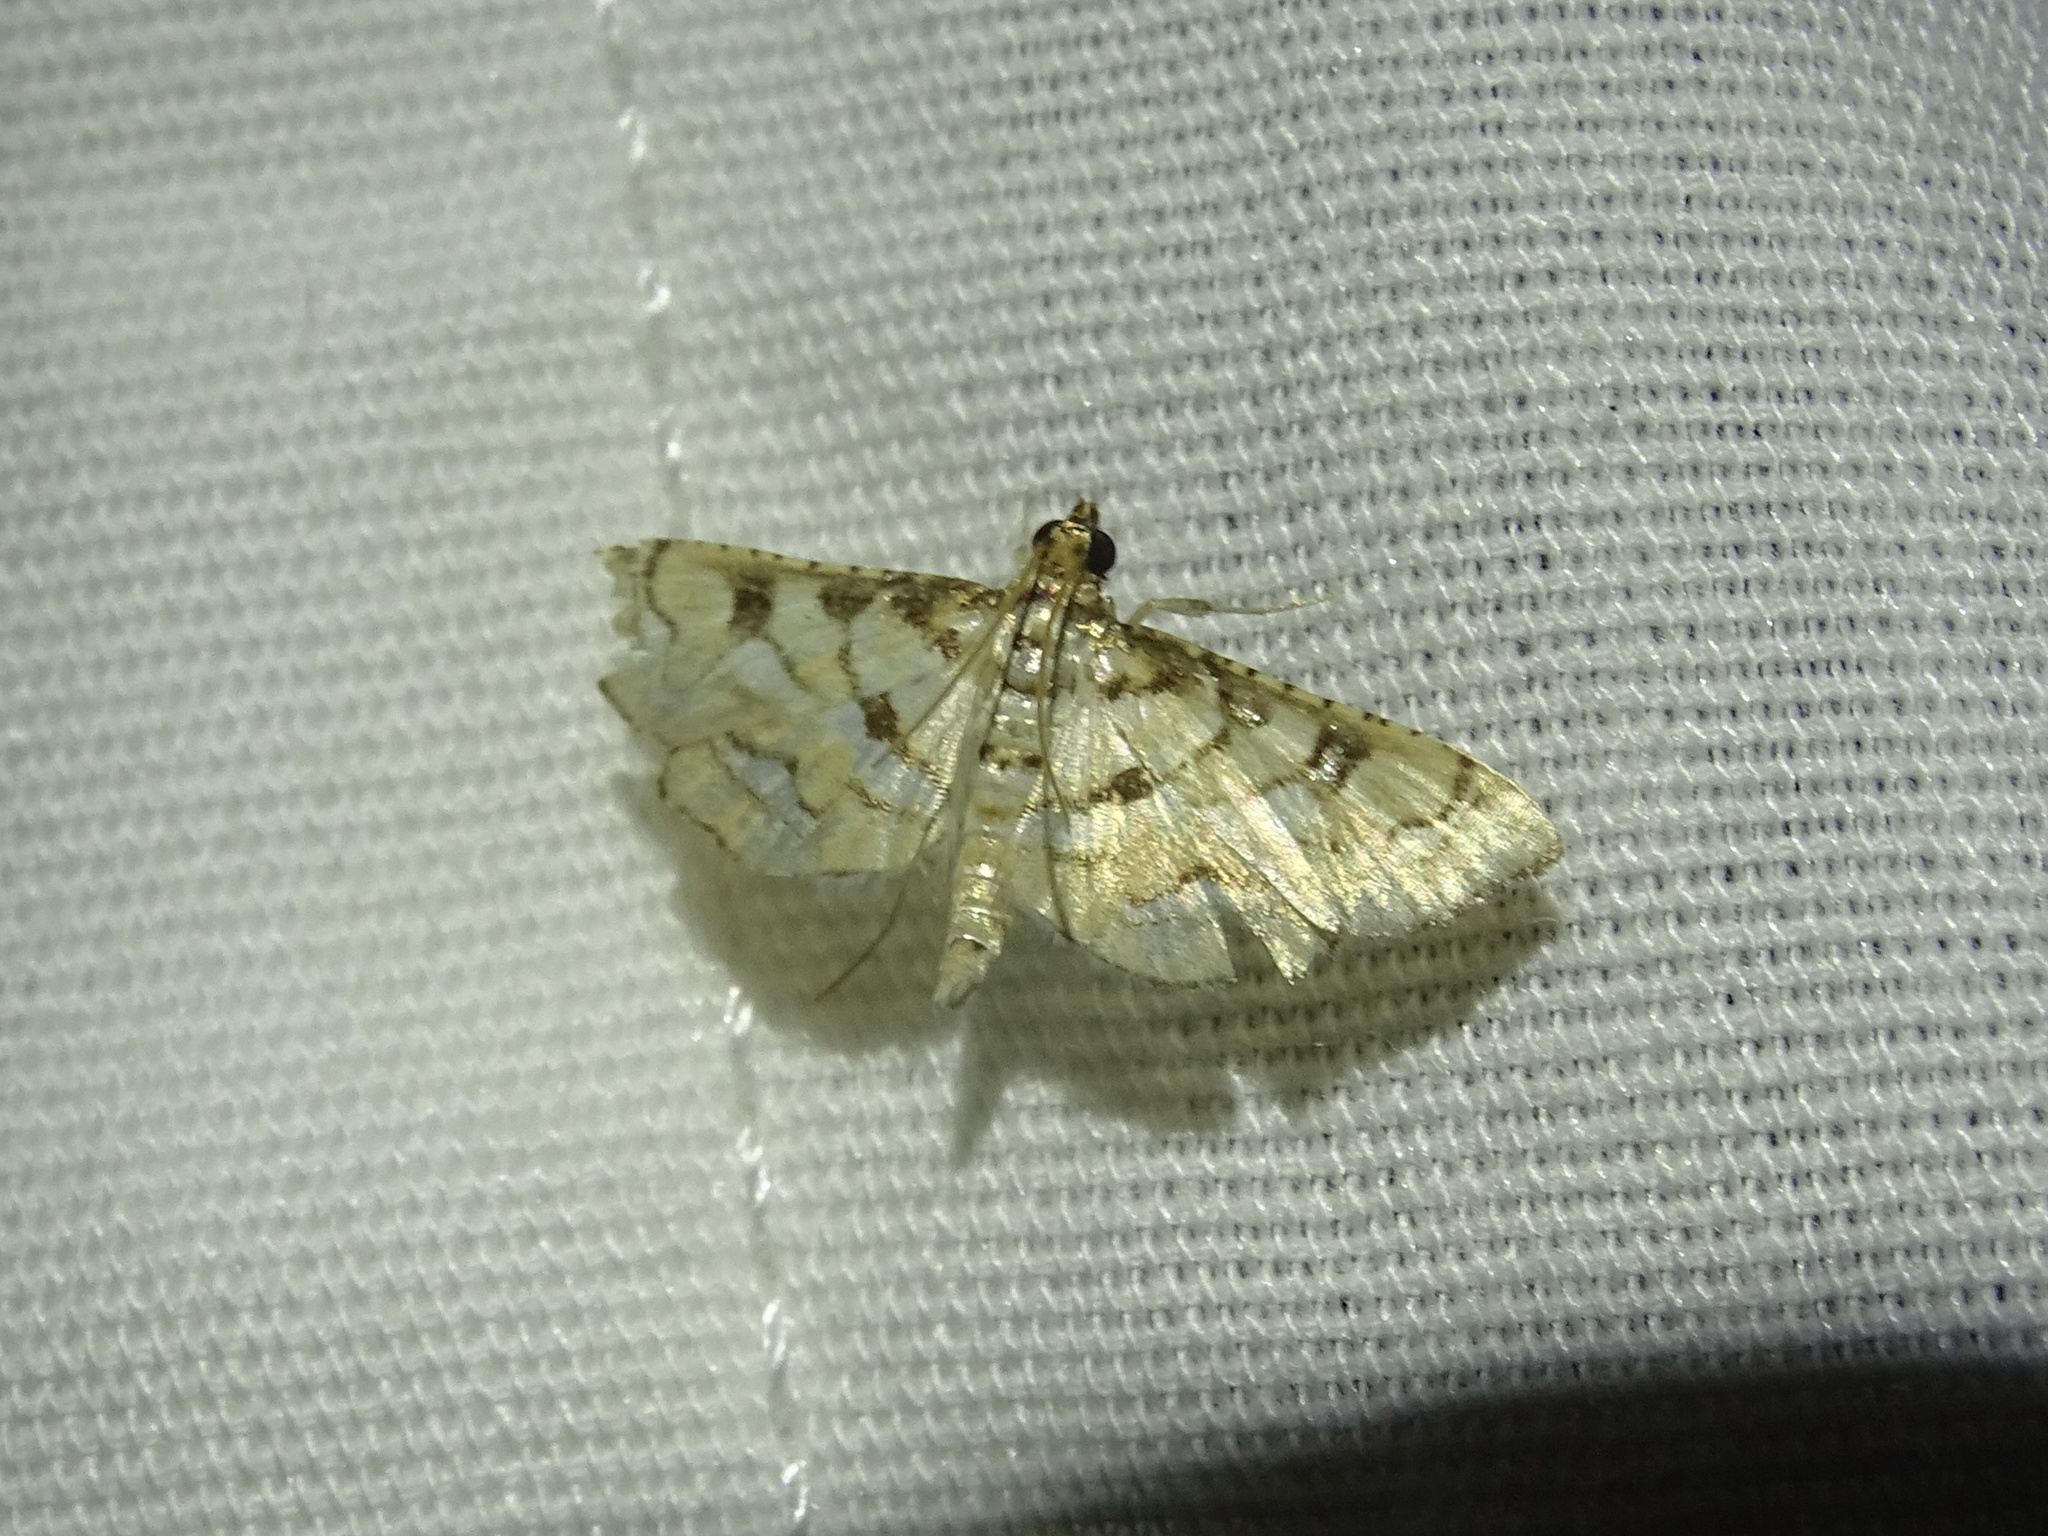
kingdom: Animalia
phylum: Arthropoda
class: Insecta
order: Lepidoptera
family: Crambidae
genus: Hileithia
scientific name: Hileithia magualis
